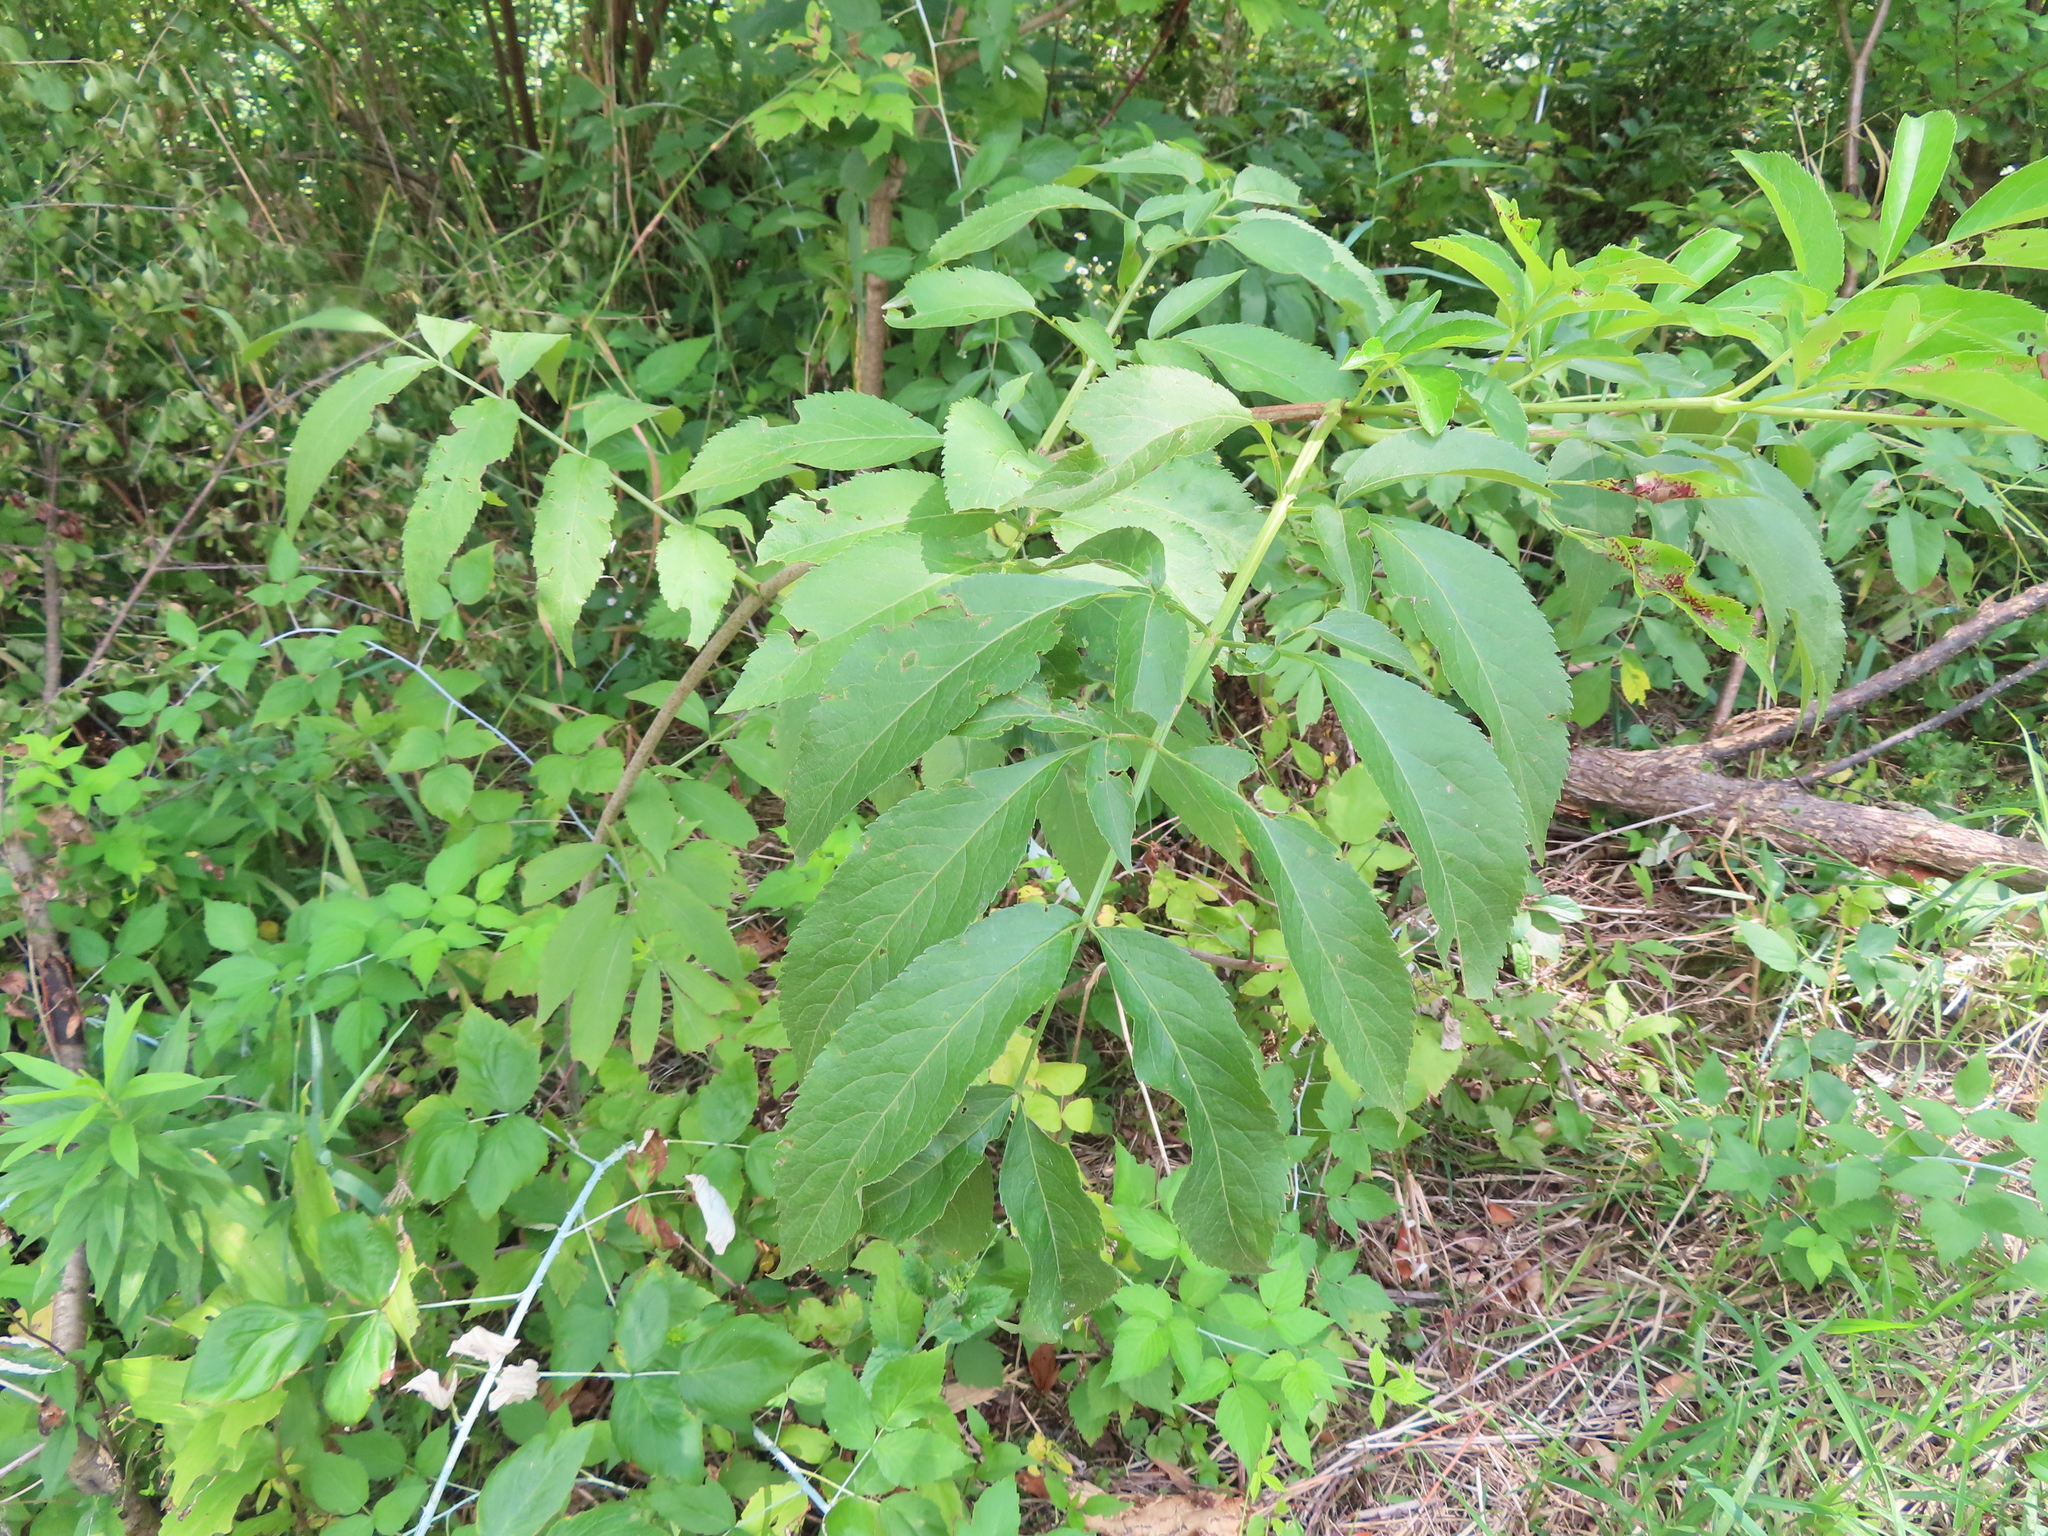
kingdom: Plantae
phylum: Tracheophyta
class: Magnoliopsida
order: Dipsacales
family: Viburnaceae
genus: Sambucus
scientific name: Sambucus canadensis
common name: American elder
